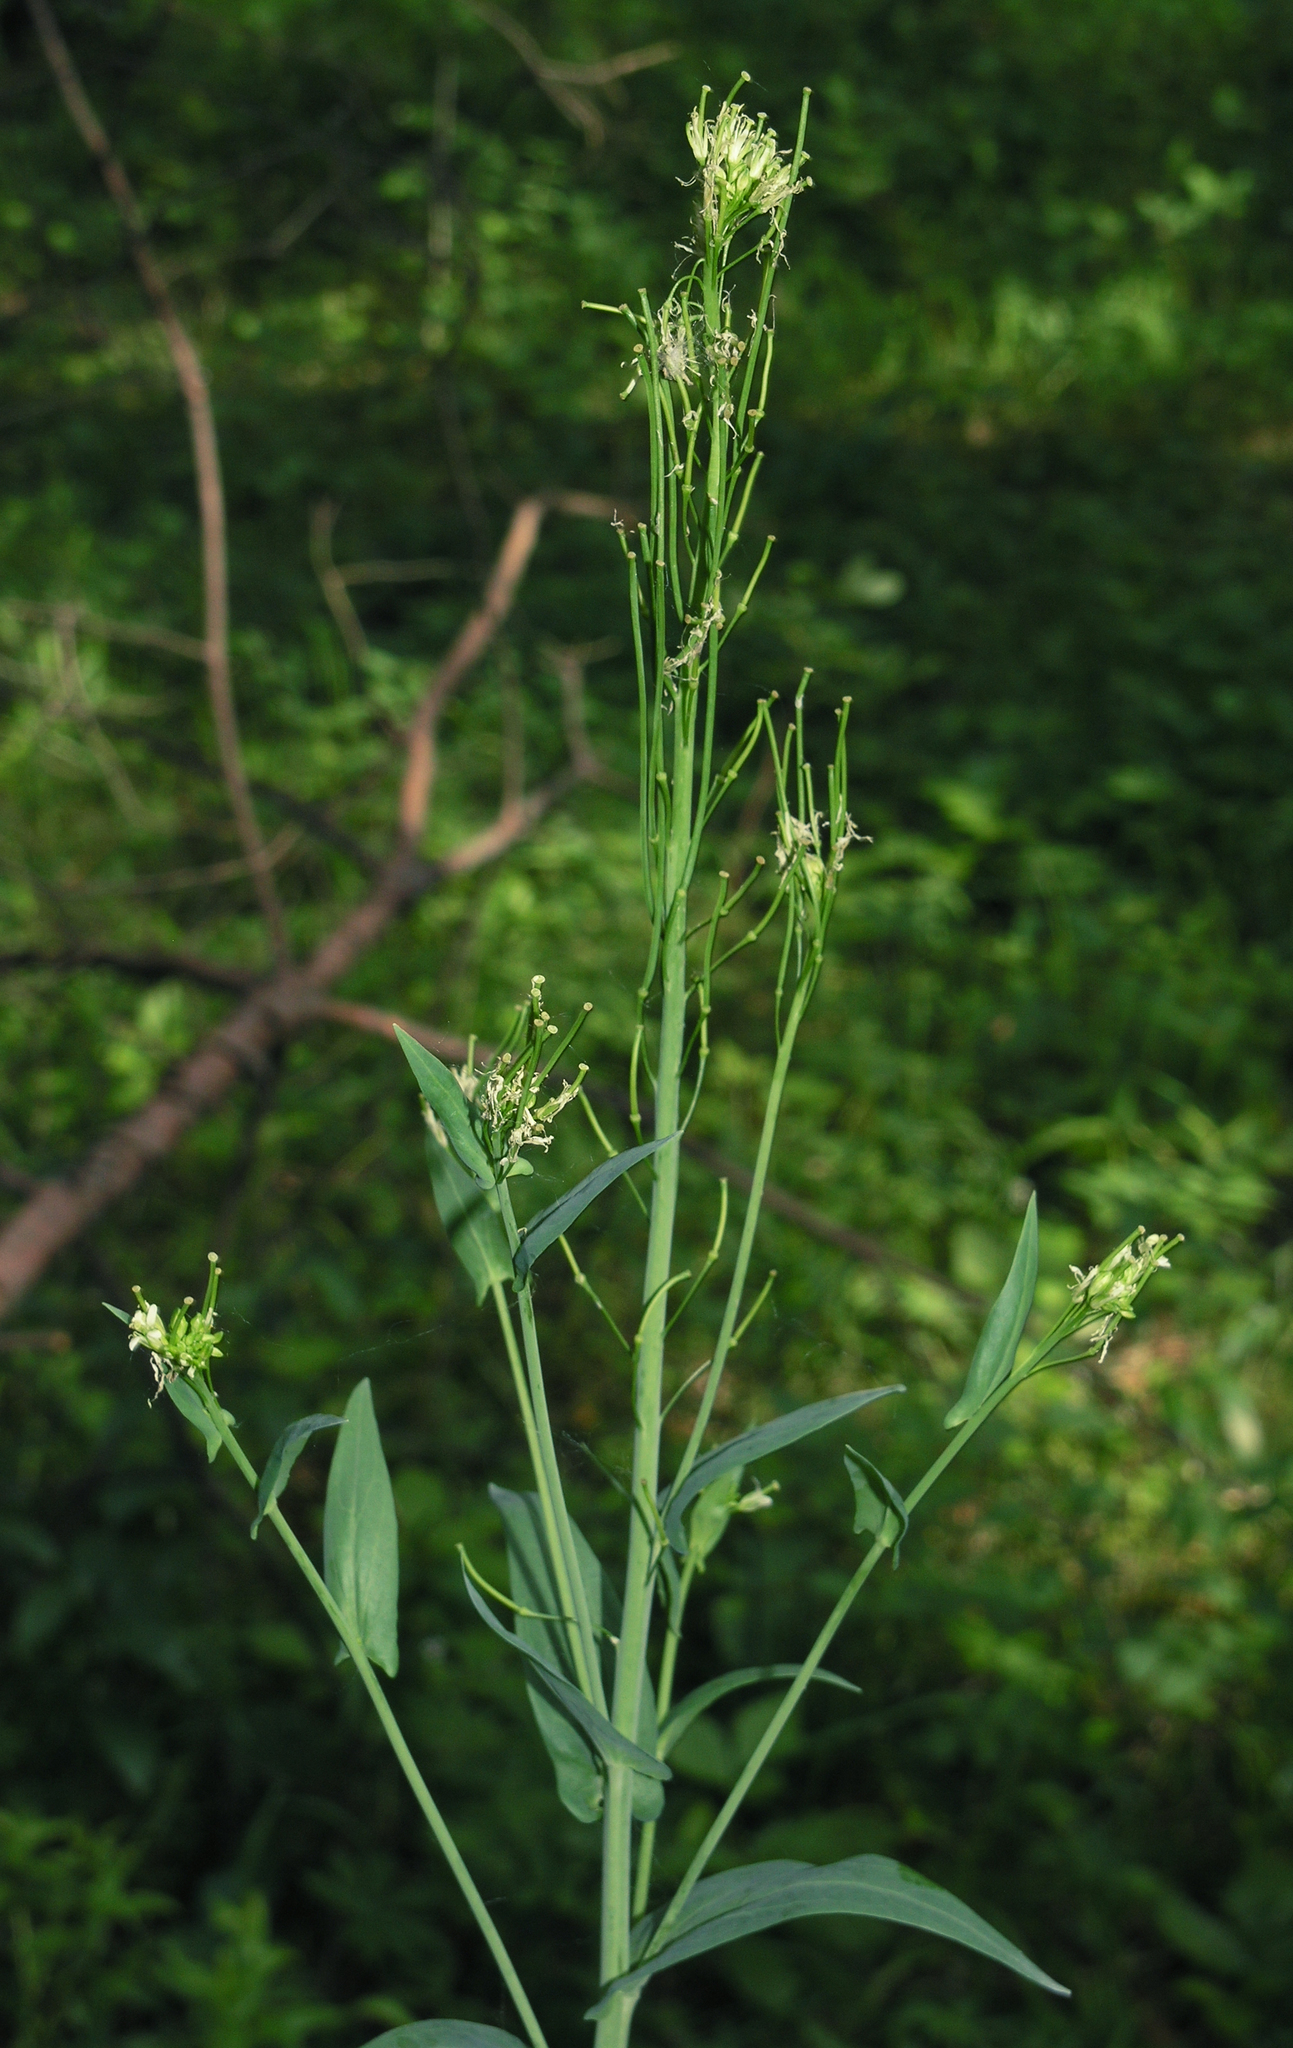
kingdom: Plantae
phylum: Tracheophyta
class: Magnoliopsida
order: Brassicales
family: Brassicaceae
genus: Turritis
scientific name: Turritis glabra
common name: Tower rockcress
